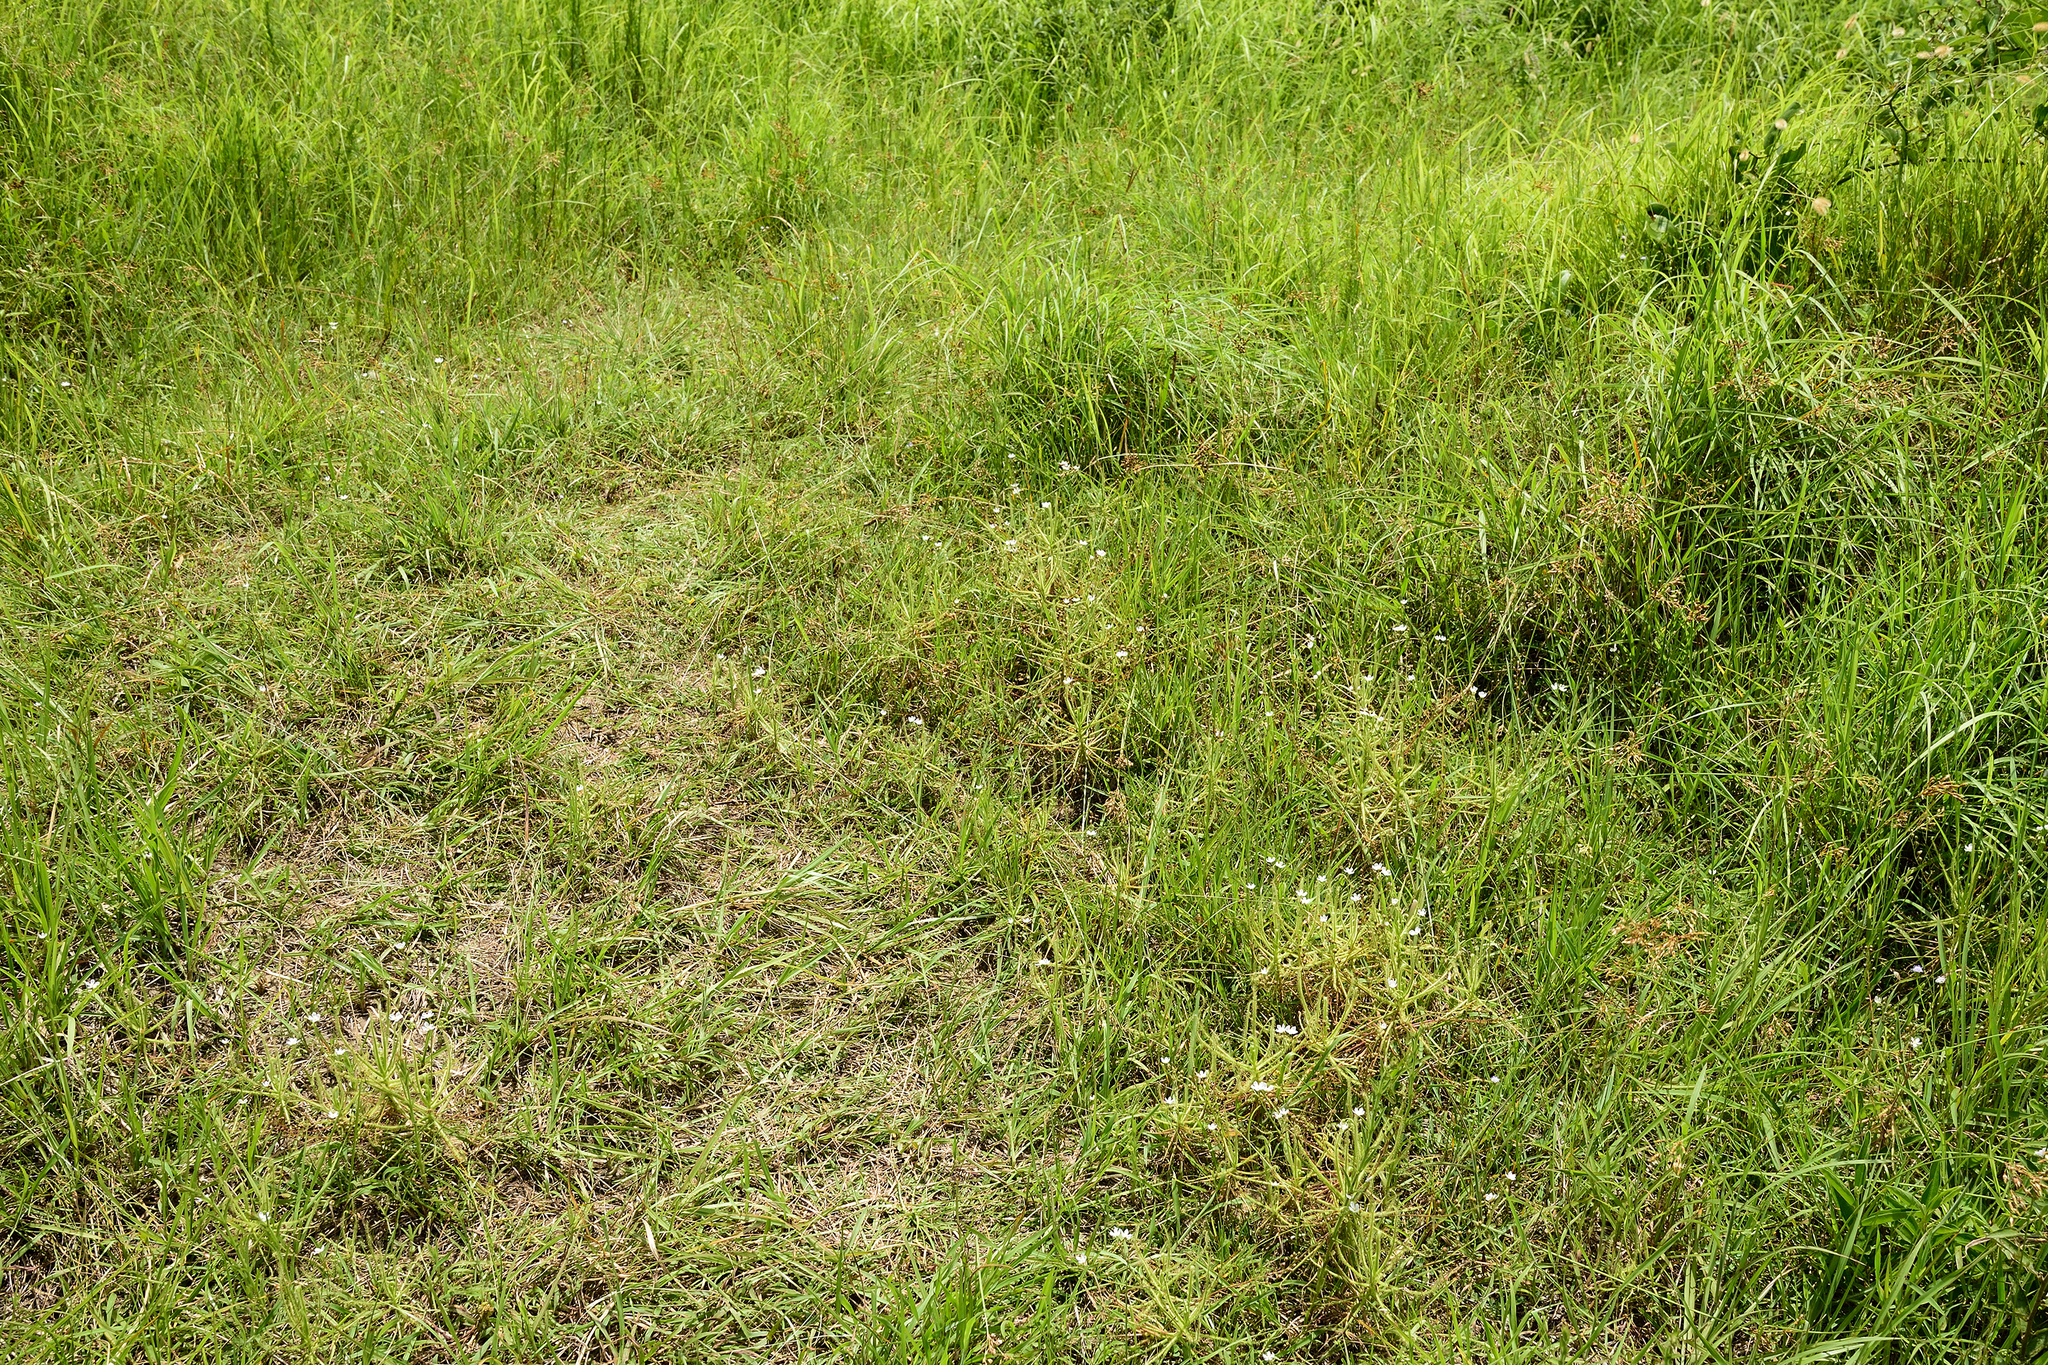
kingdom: Plantae
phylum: Tracheophyta
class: Magnoliopsida
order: Caryophyllales
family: Droseraceae
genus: Drosera
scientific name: Drosera finlaysoniana
